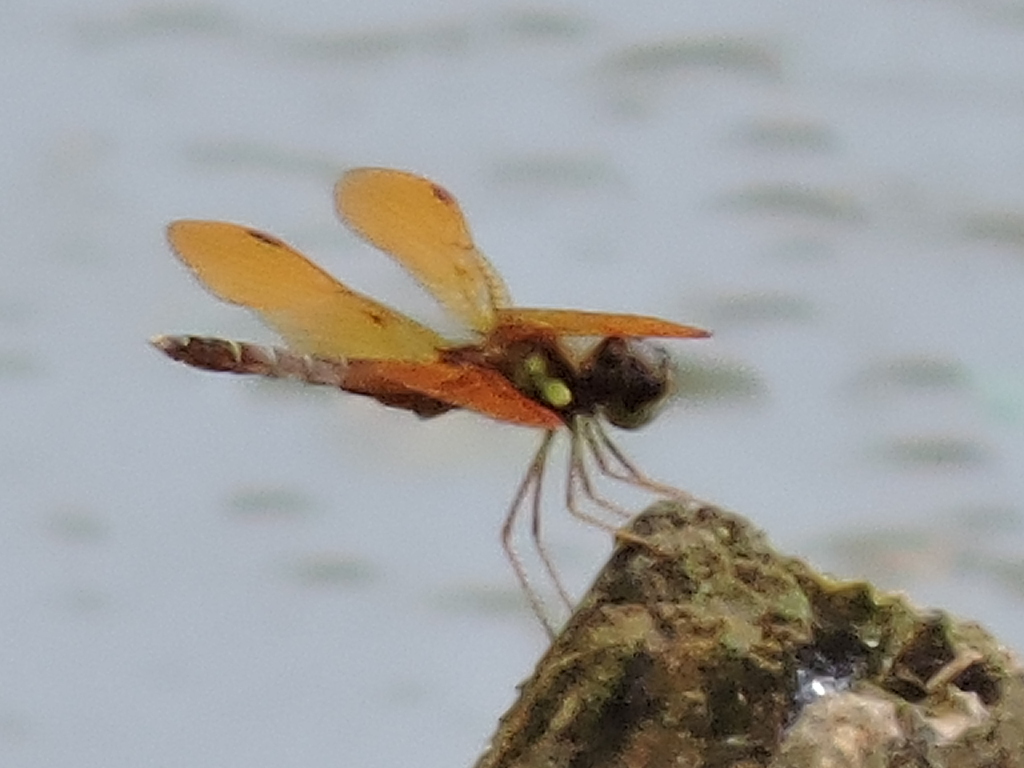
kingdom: Animalia
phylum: Arthropoda
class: Insecta
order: Odonata
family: Libellulidae
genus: Perithemis
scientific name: Perithemis tenera
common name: Eastern amberwing
